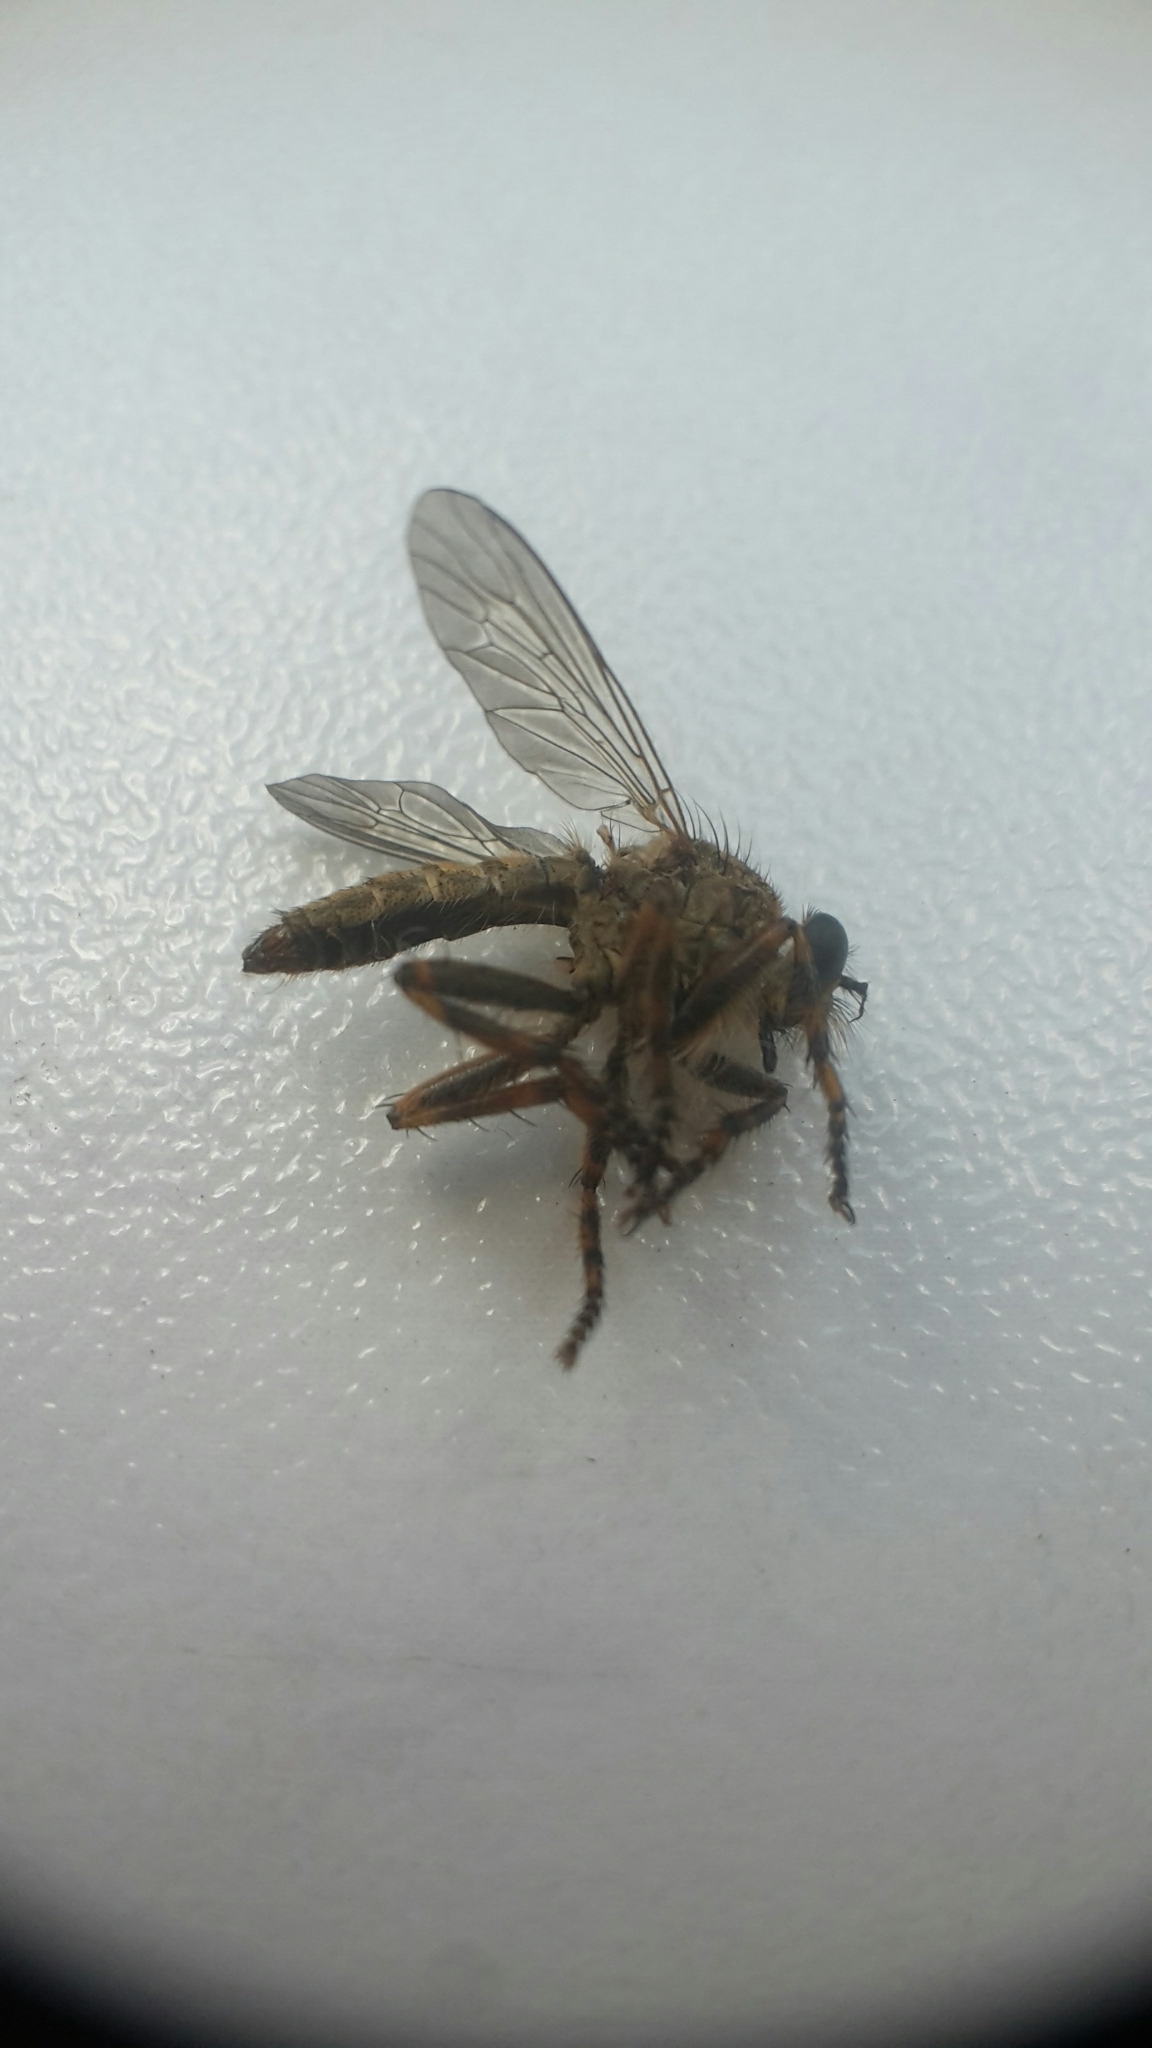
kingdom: Animalia
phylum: Arthropoda
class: Insecta
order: Diptera
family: Asilidae
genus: Epitriptus
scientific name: Epitriptus cingulatus
